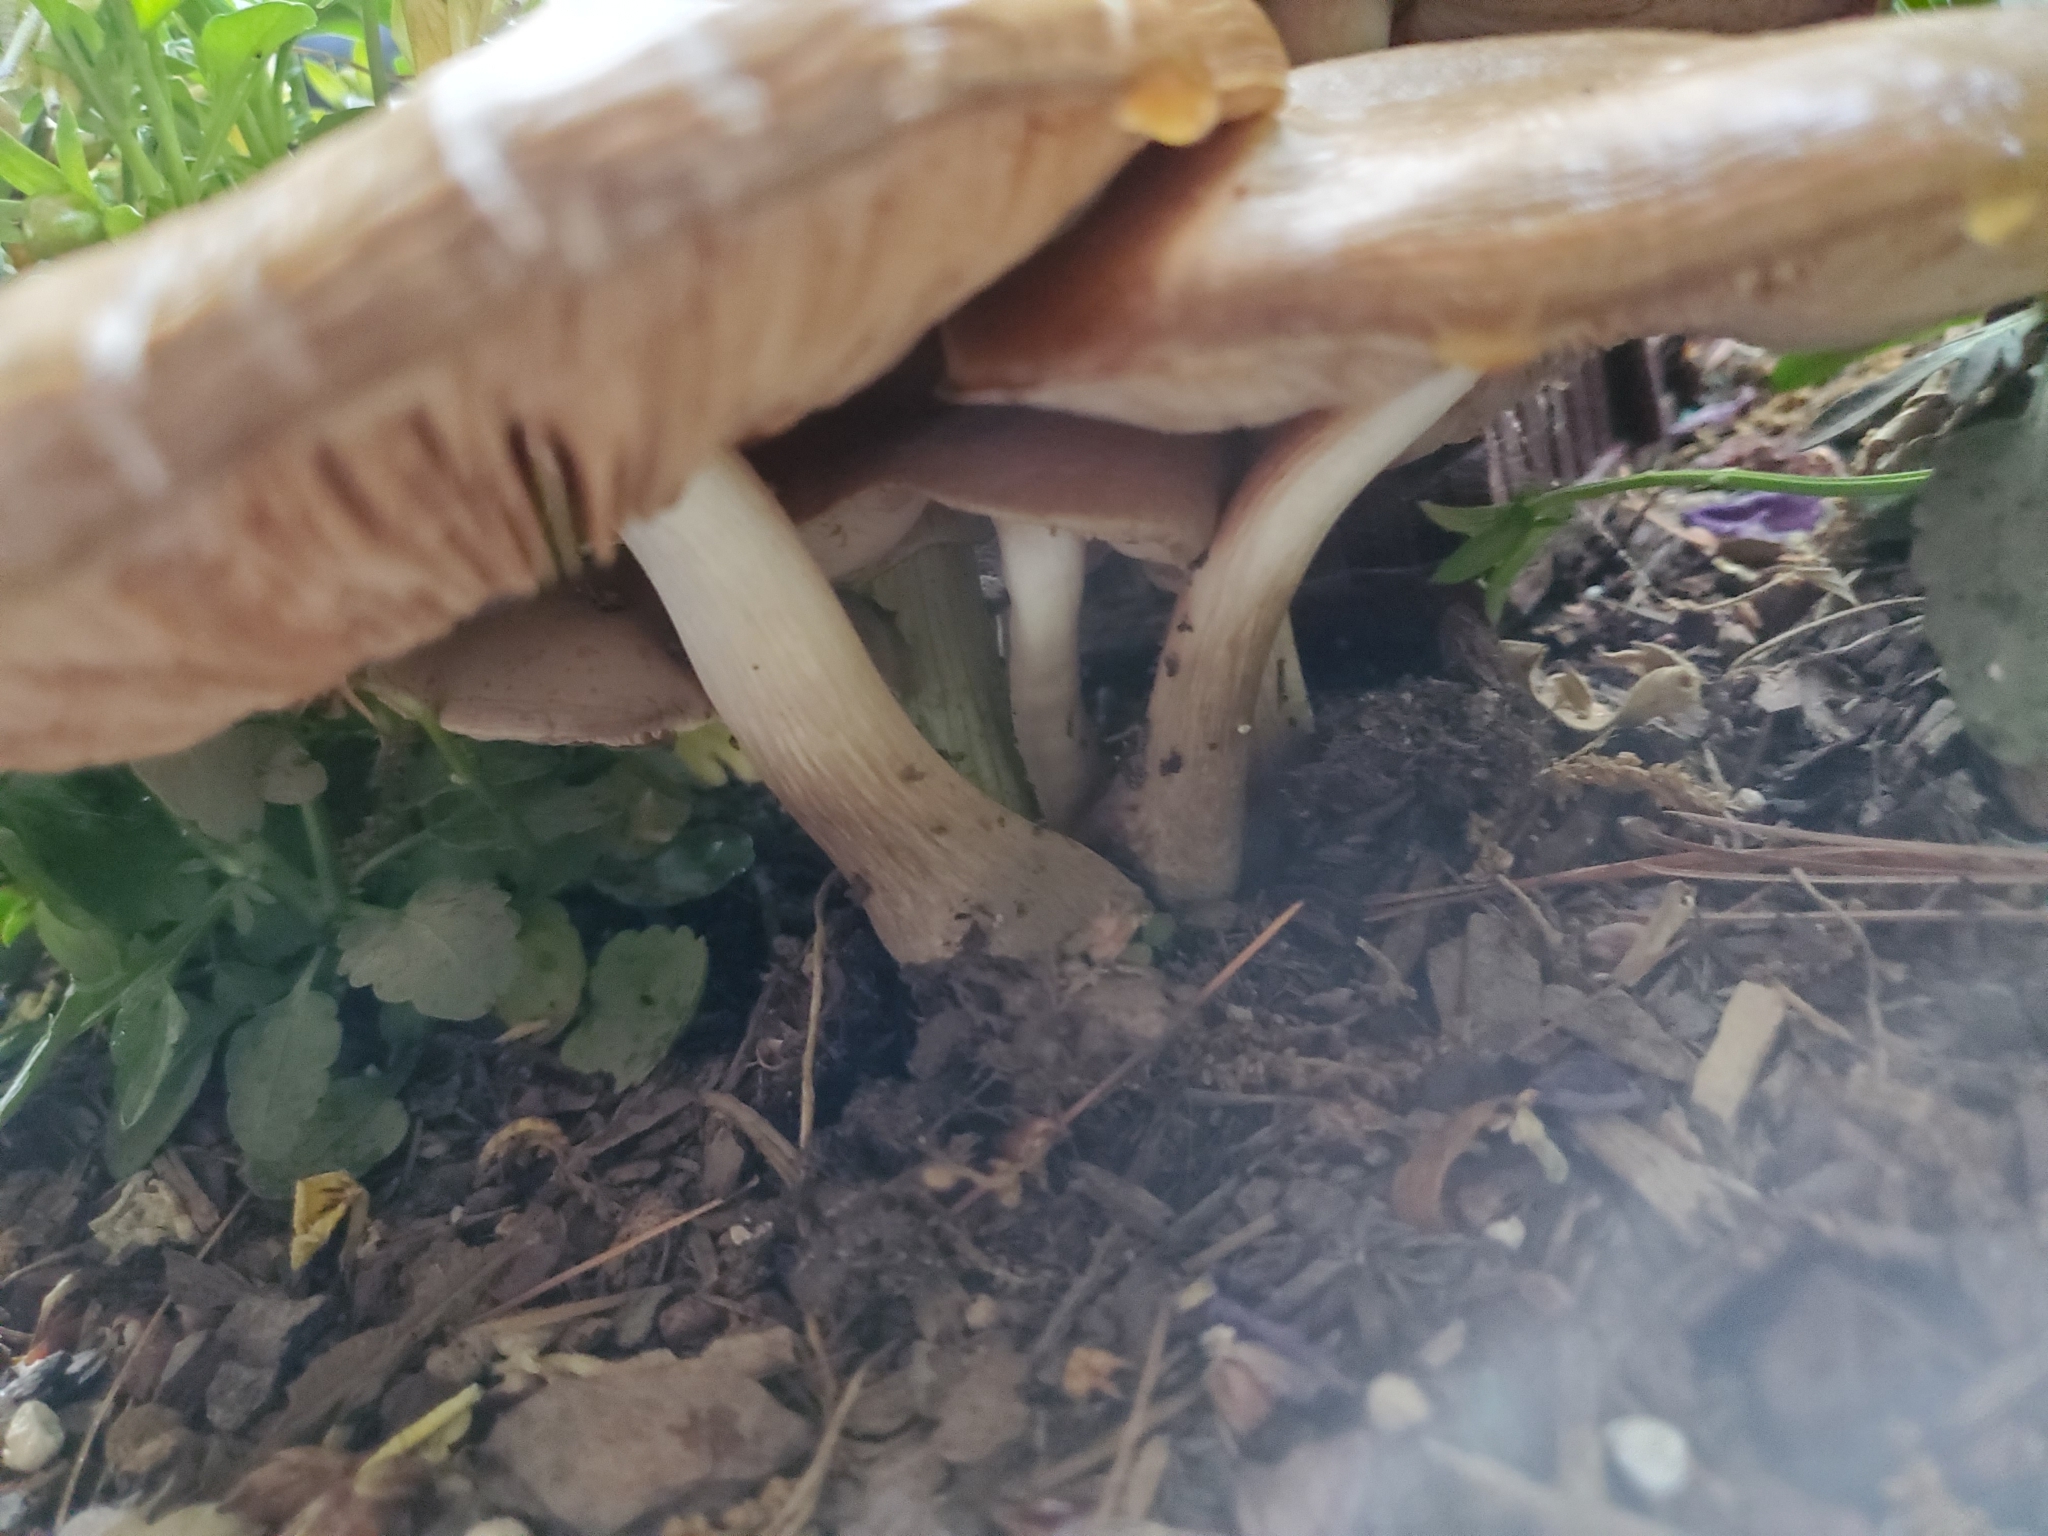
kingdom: Fungi
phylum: Basidiomycota
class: Agaricomycetes
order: Agaricales
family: Pluteaceae
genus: Pluteus
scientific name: Pluteus petasatus
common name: Scaly shield
